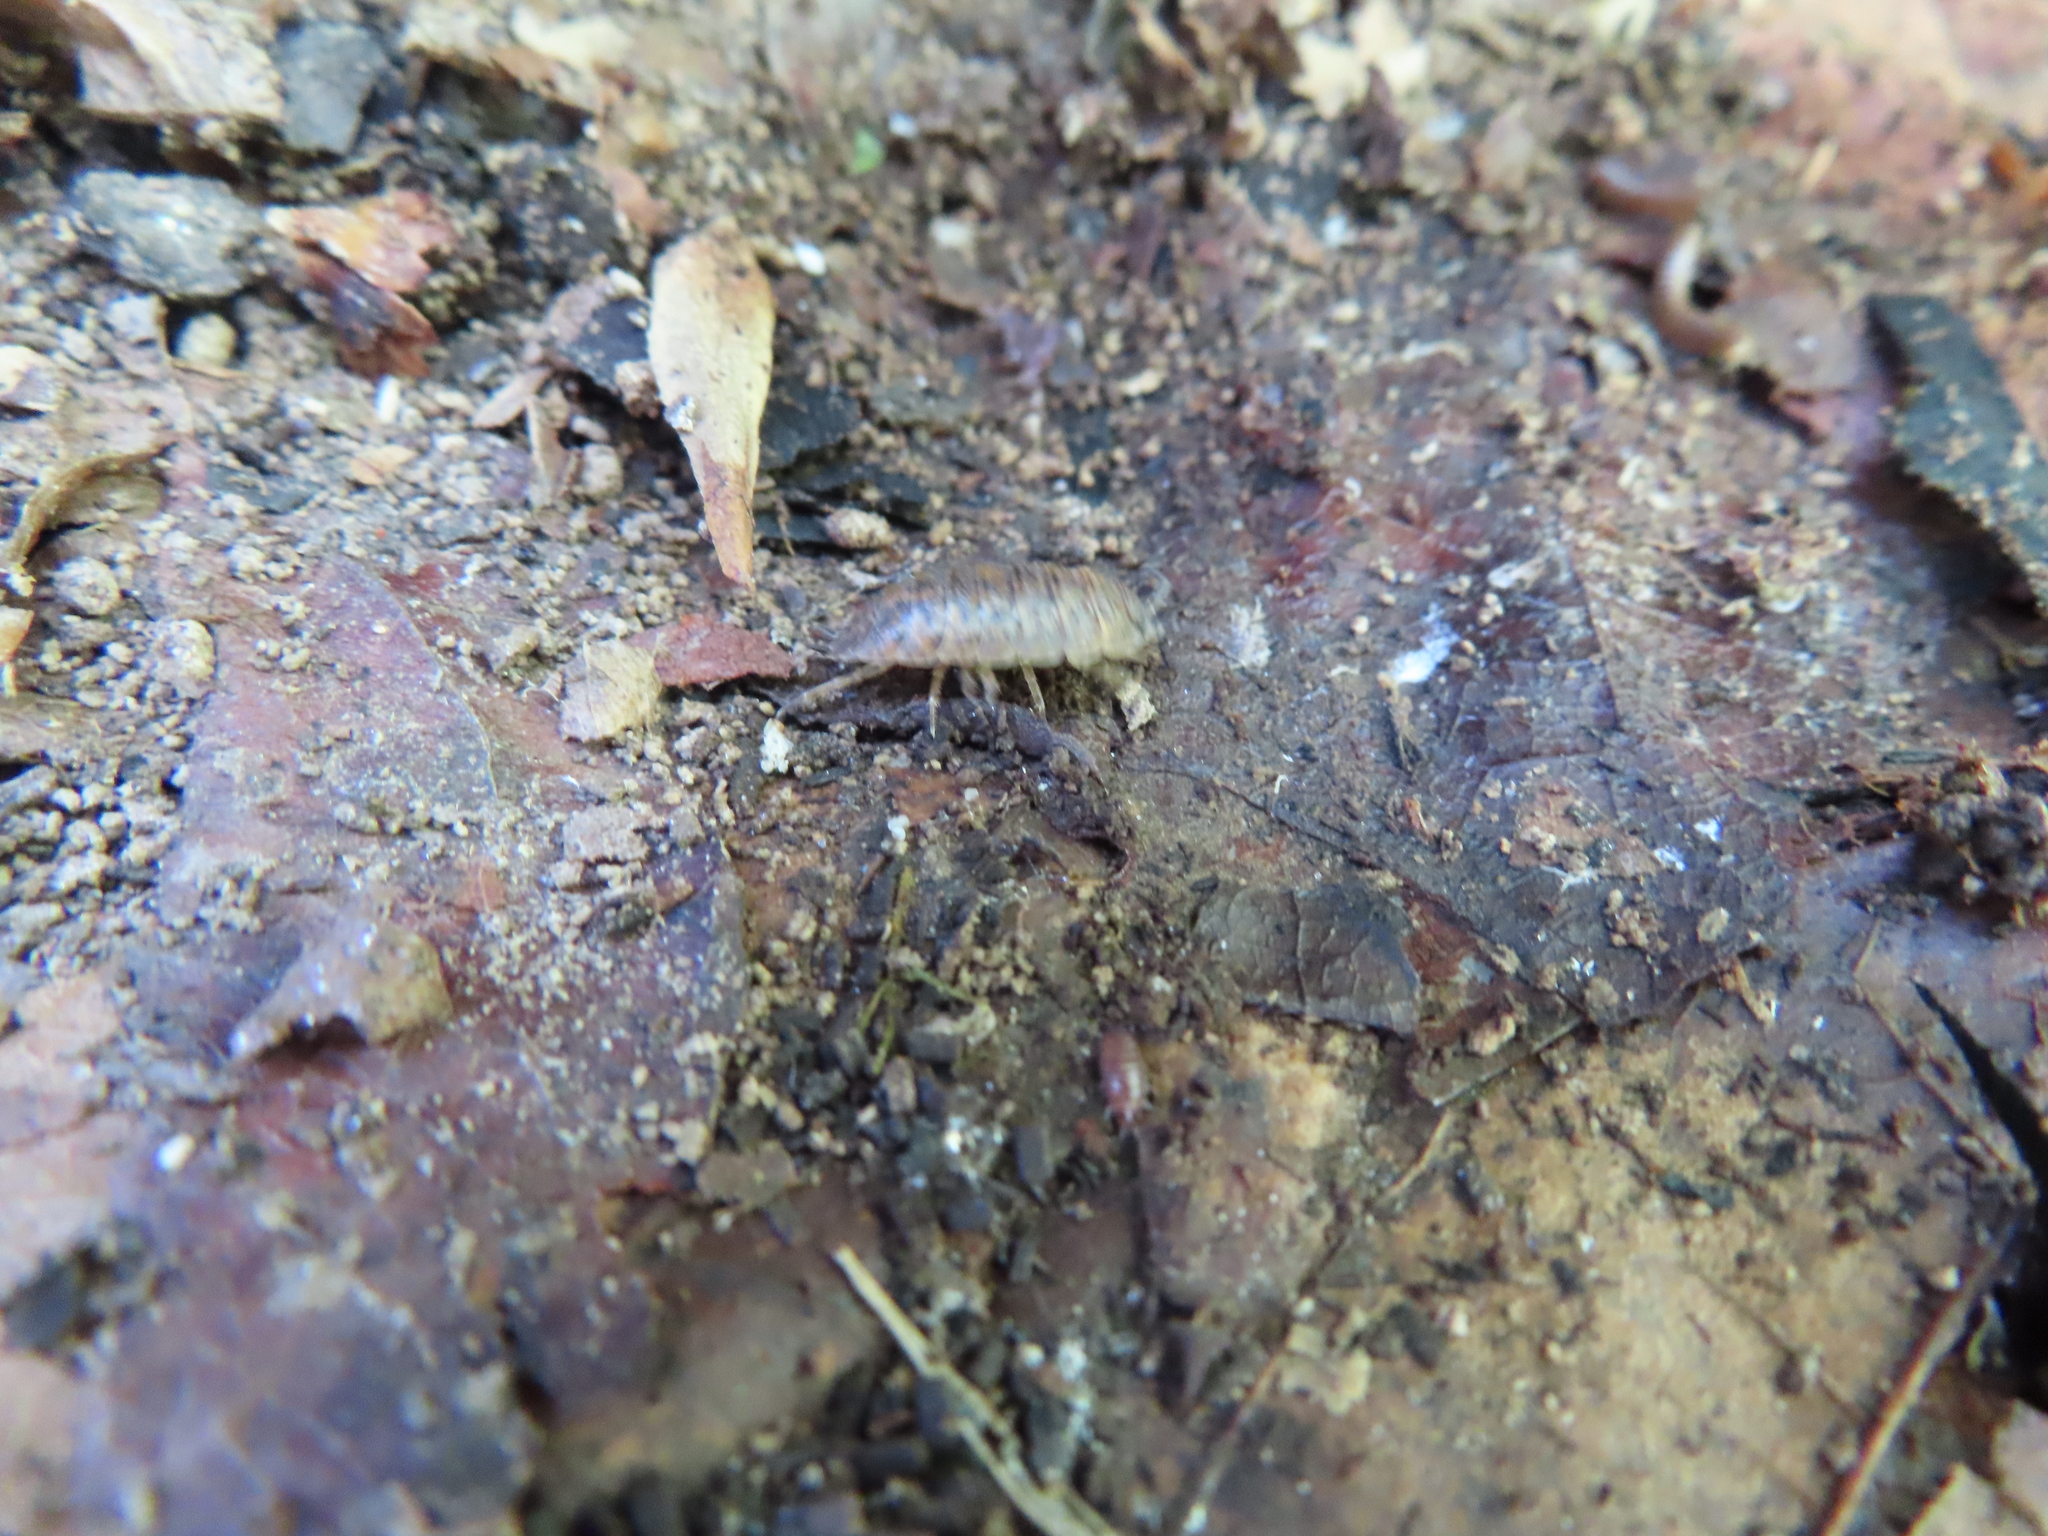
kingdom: Animalia
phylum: Arthropoda
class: Malacostraca
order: Isopoda
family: Trachelipodidae
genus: Trachelipus
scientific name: Trachelipus rathkii
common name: Isopod
